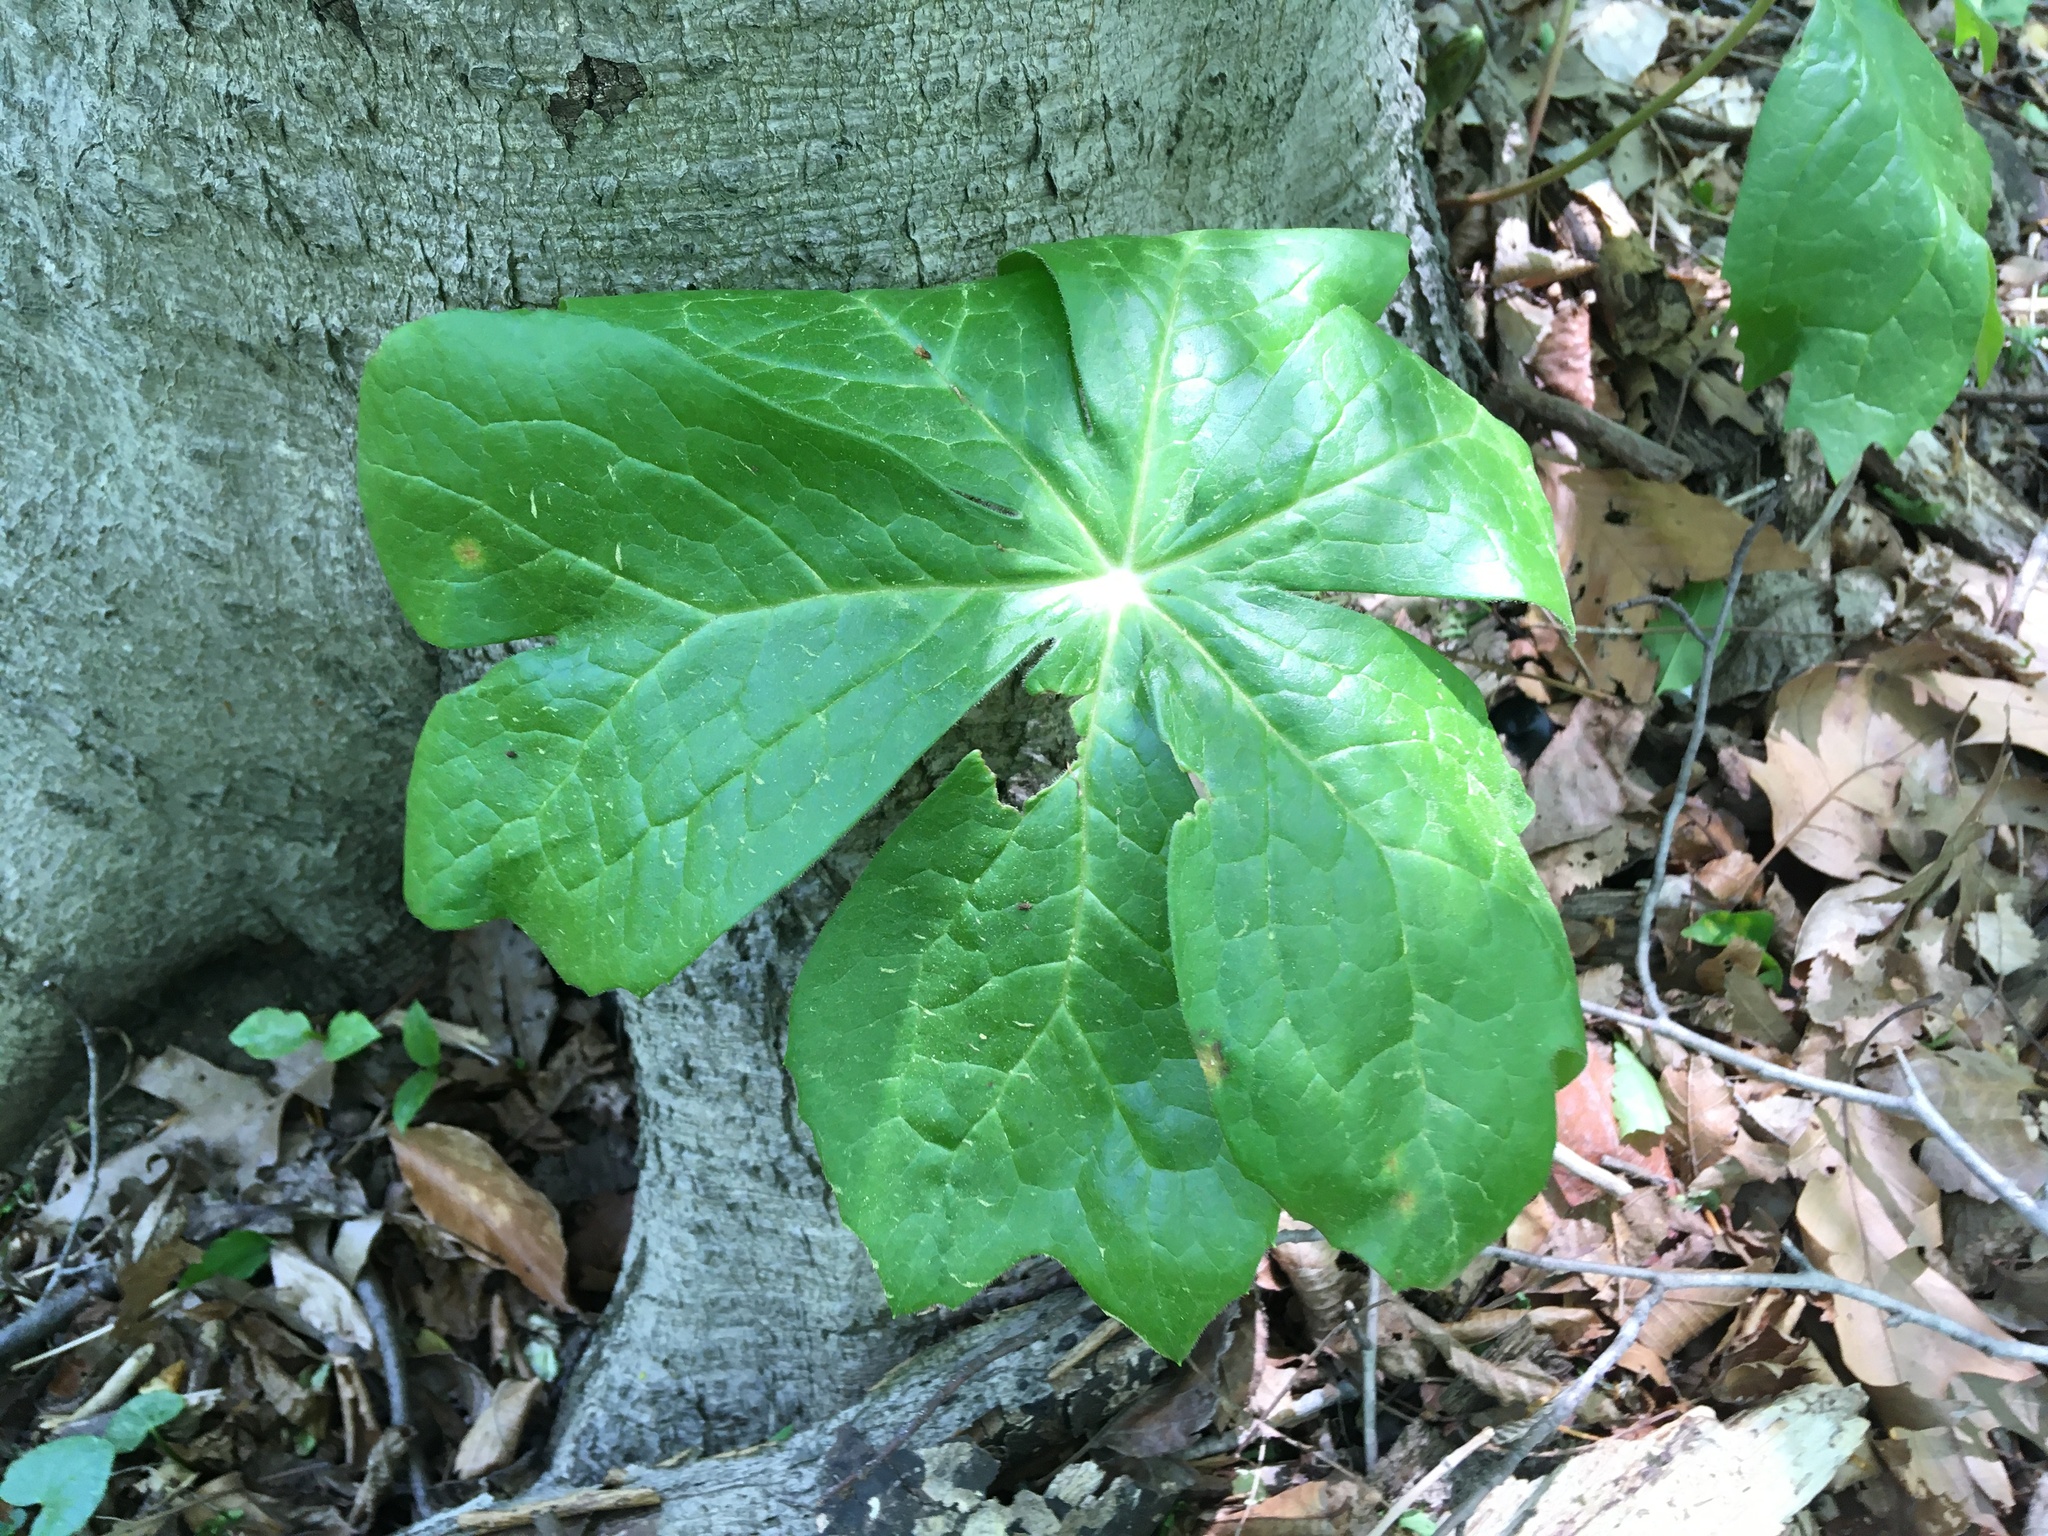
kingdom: Plantae
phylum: Tracheophyta
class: Magnoliopsida
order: Ranunculales
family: Berberidaceae
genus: Podophyllum
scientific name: Podophyllum peltatum
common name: Wild mandrake
